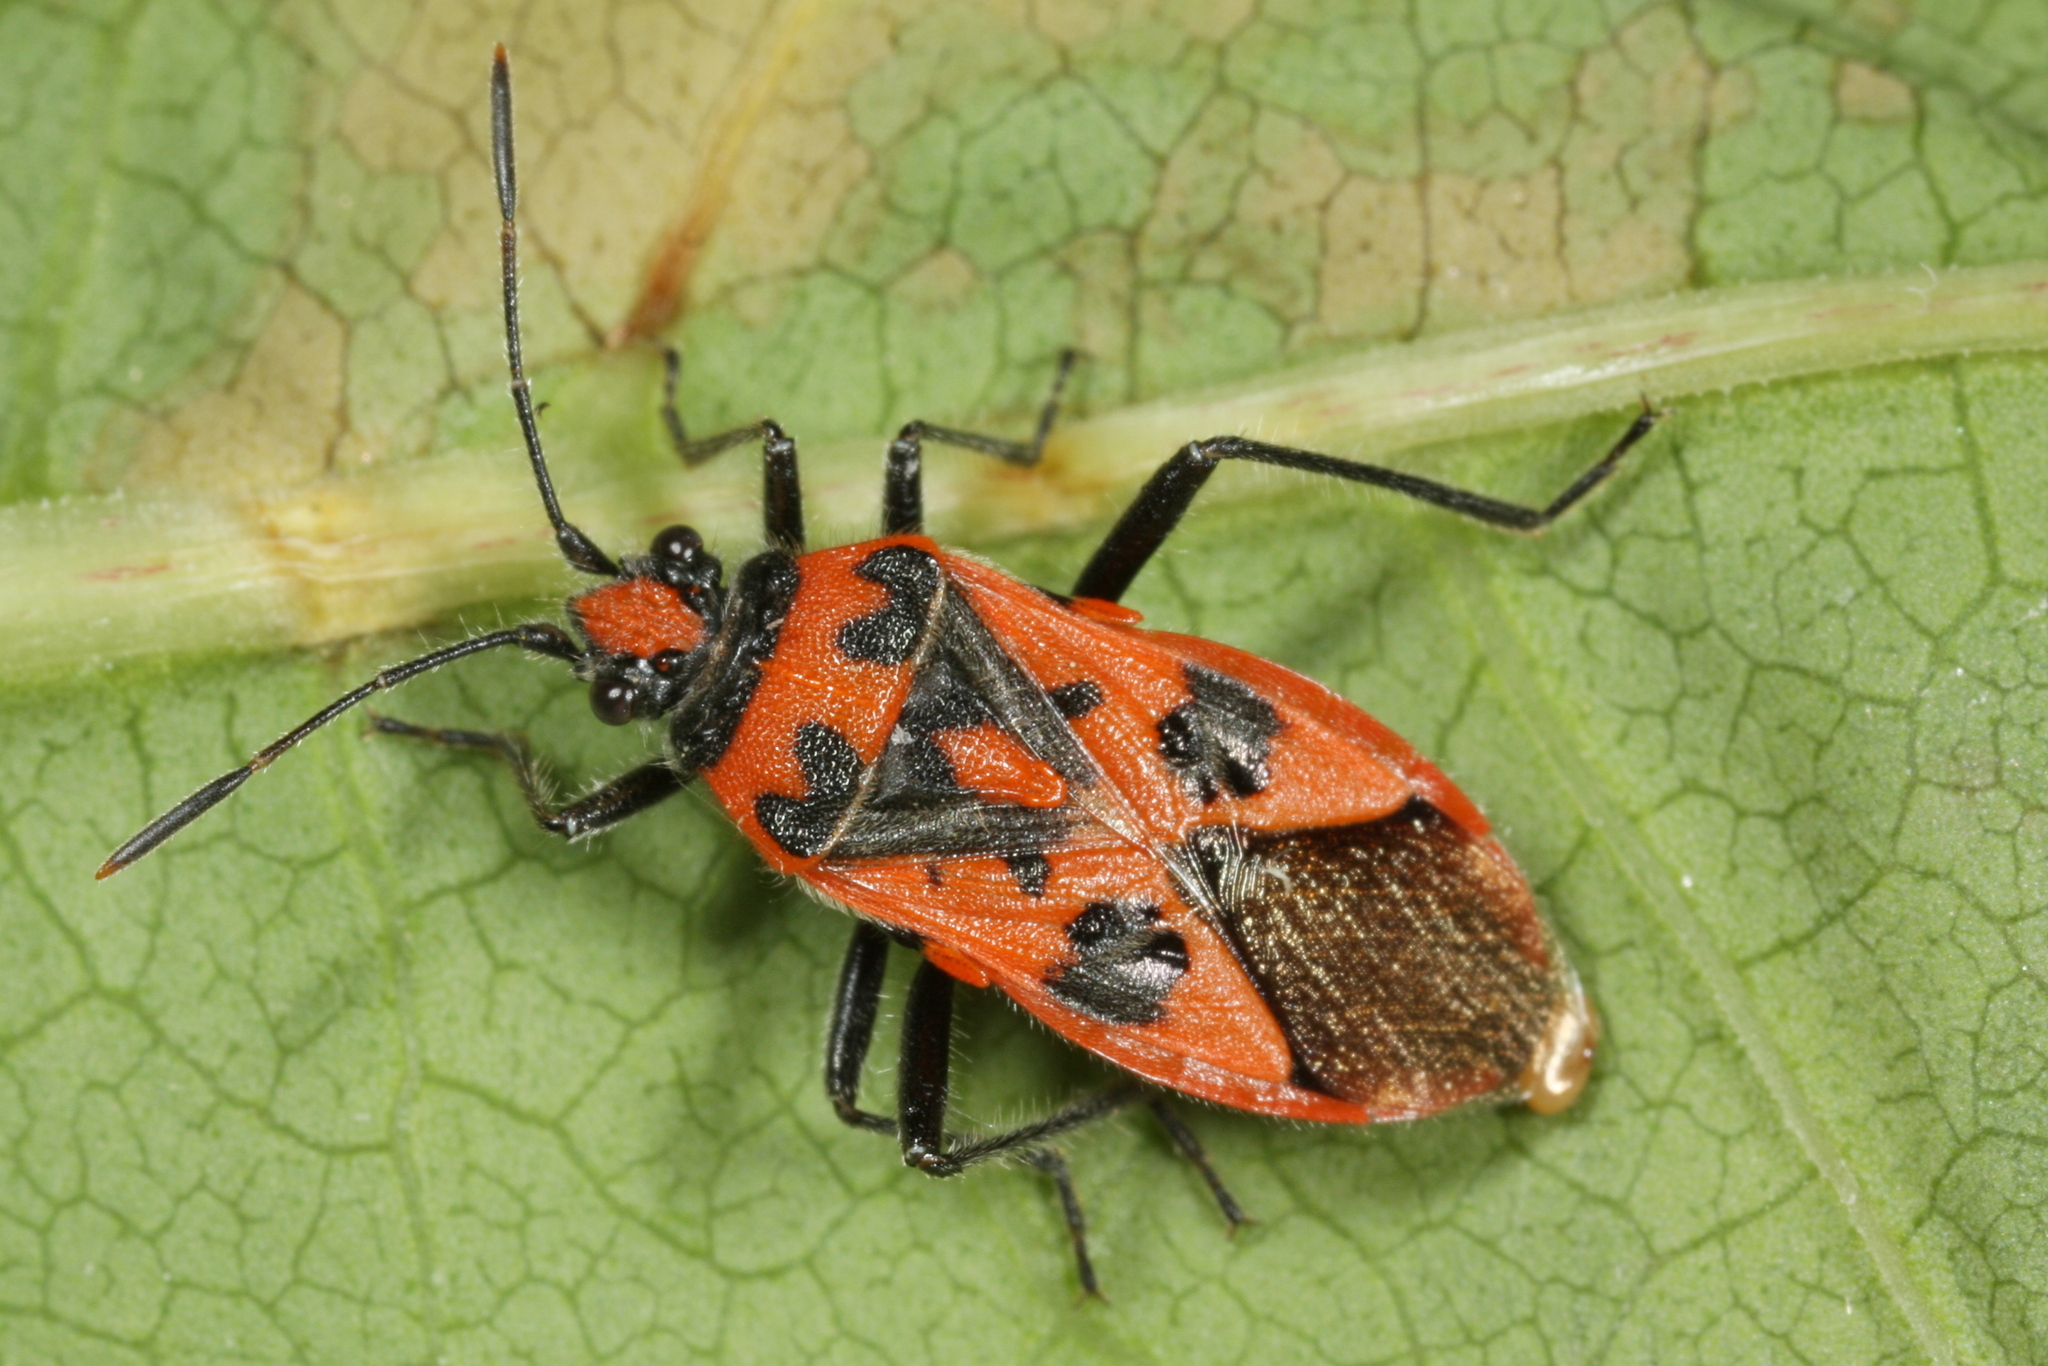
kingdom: Animalia
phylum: Arthropoda
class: Insecta
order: Hemiptera
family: Rhopalidae
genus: Corizus
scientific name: Corizus hyoscyami
